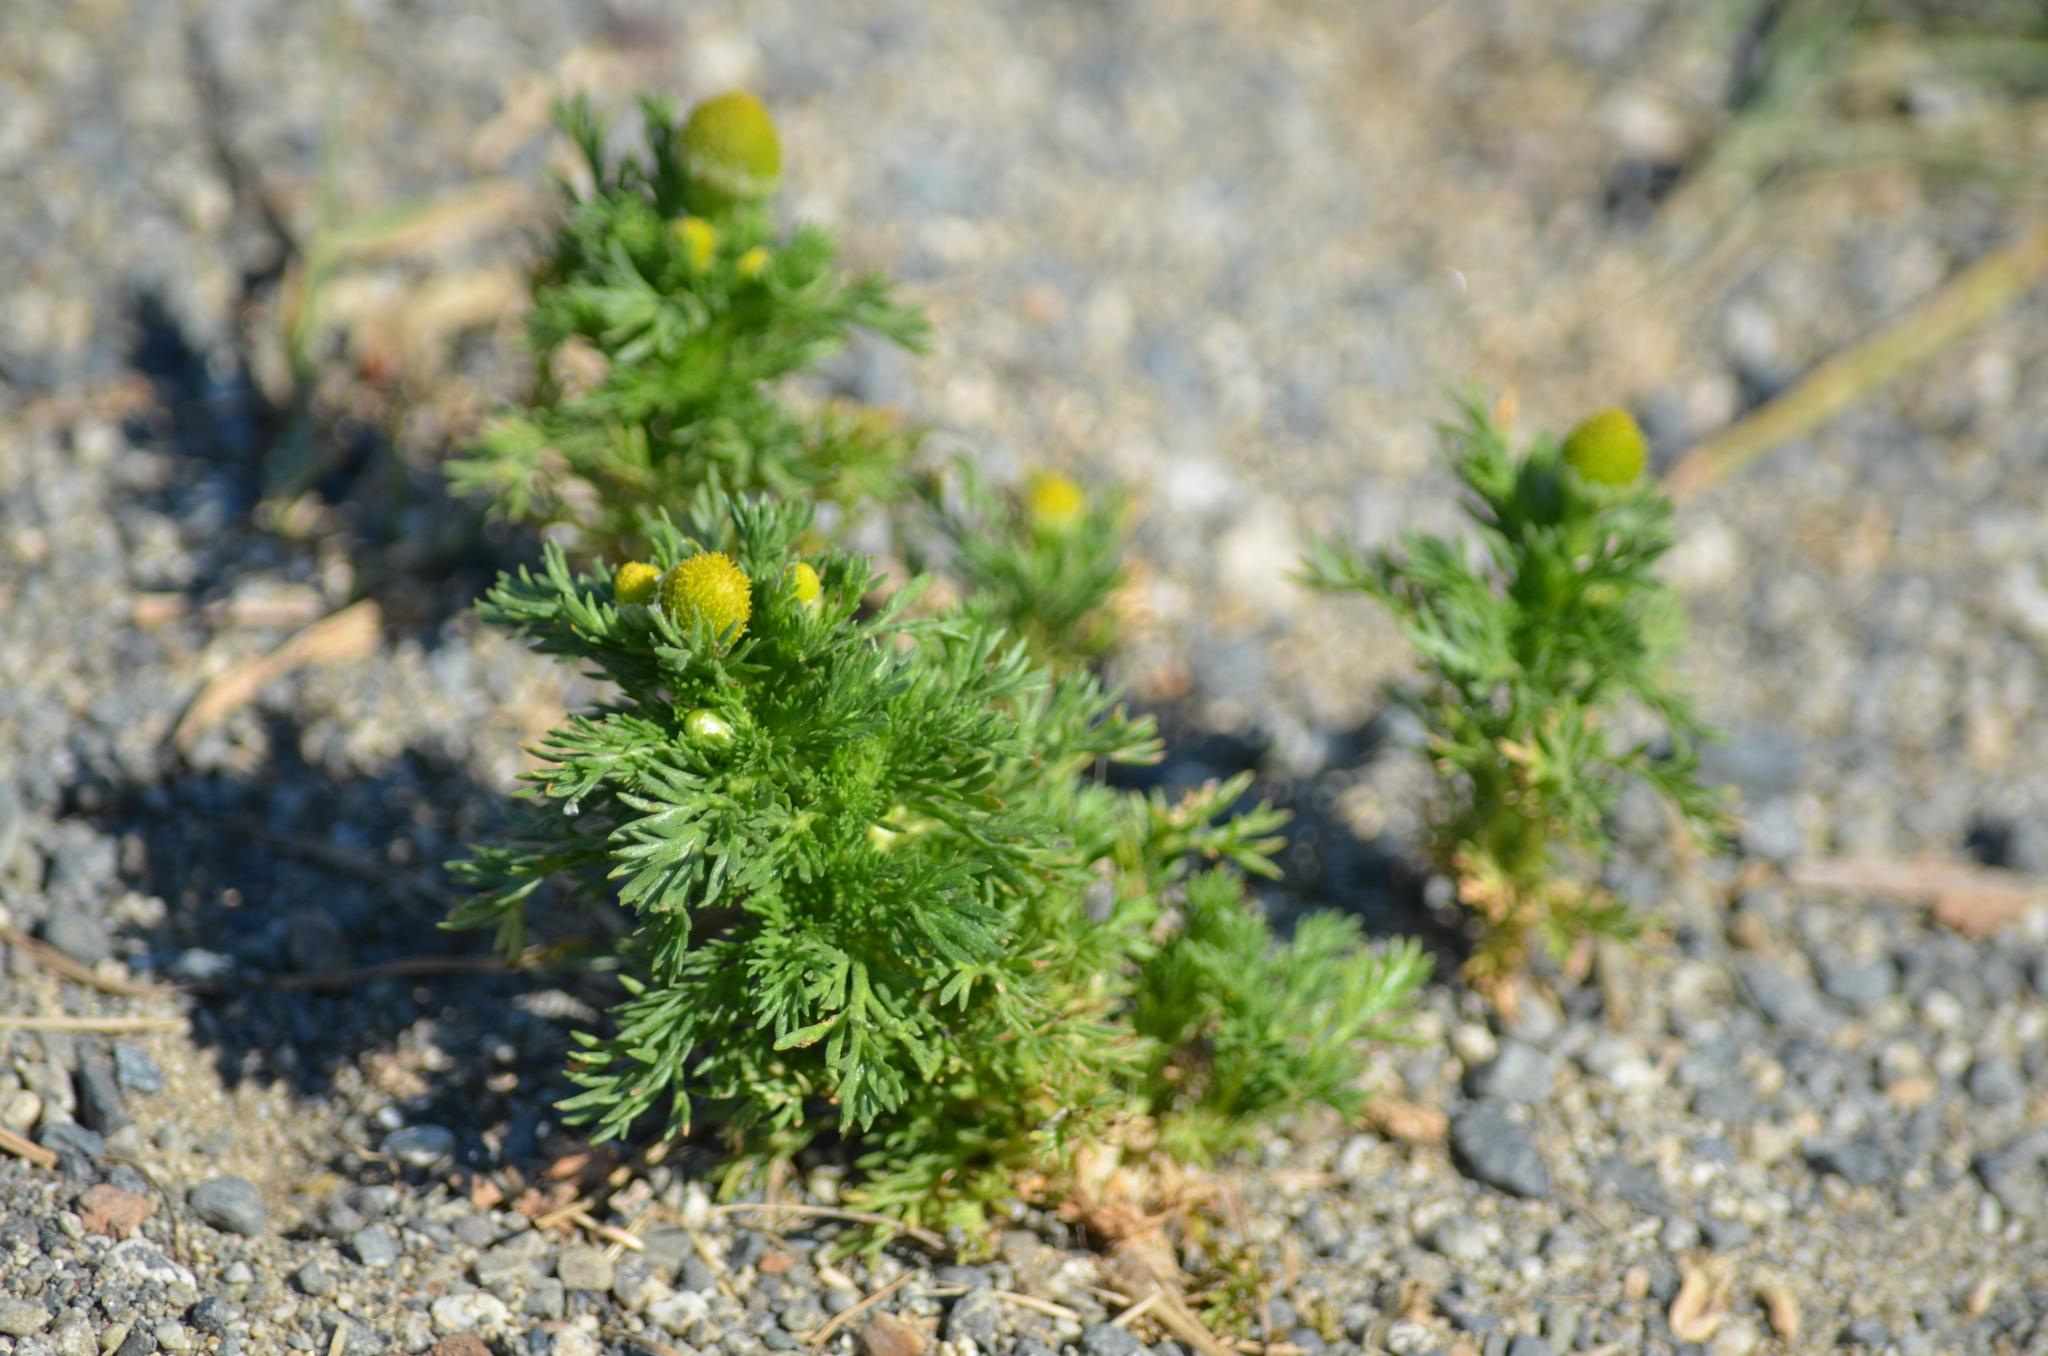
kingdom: Plantae
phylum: Tracheophyta
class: Magnoliopsida
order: Asterales
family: Asteraceae
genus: Matricaria
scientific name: Matricaria discoidea
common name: Disc mayweed
